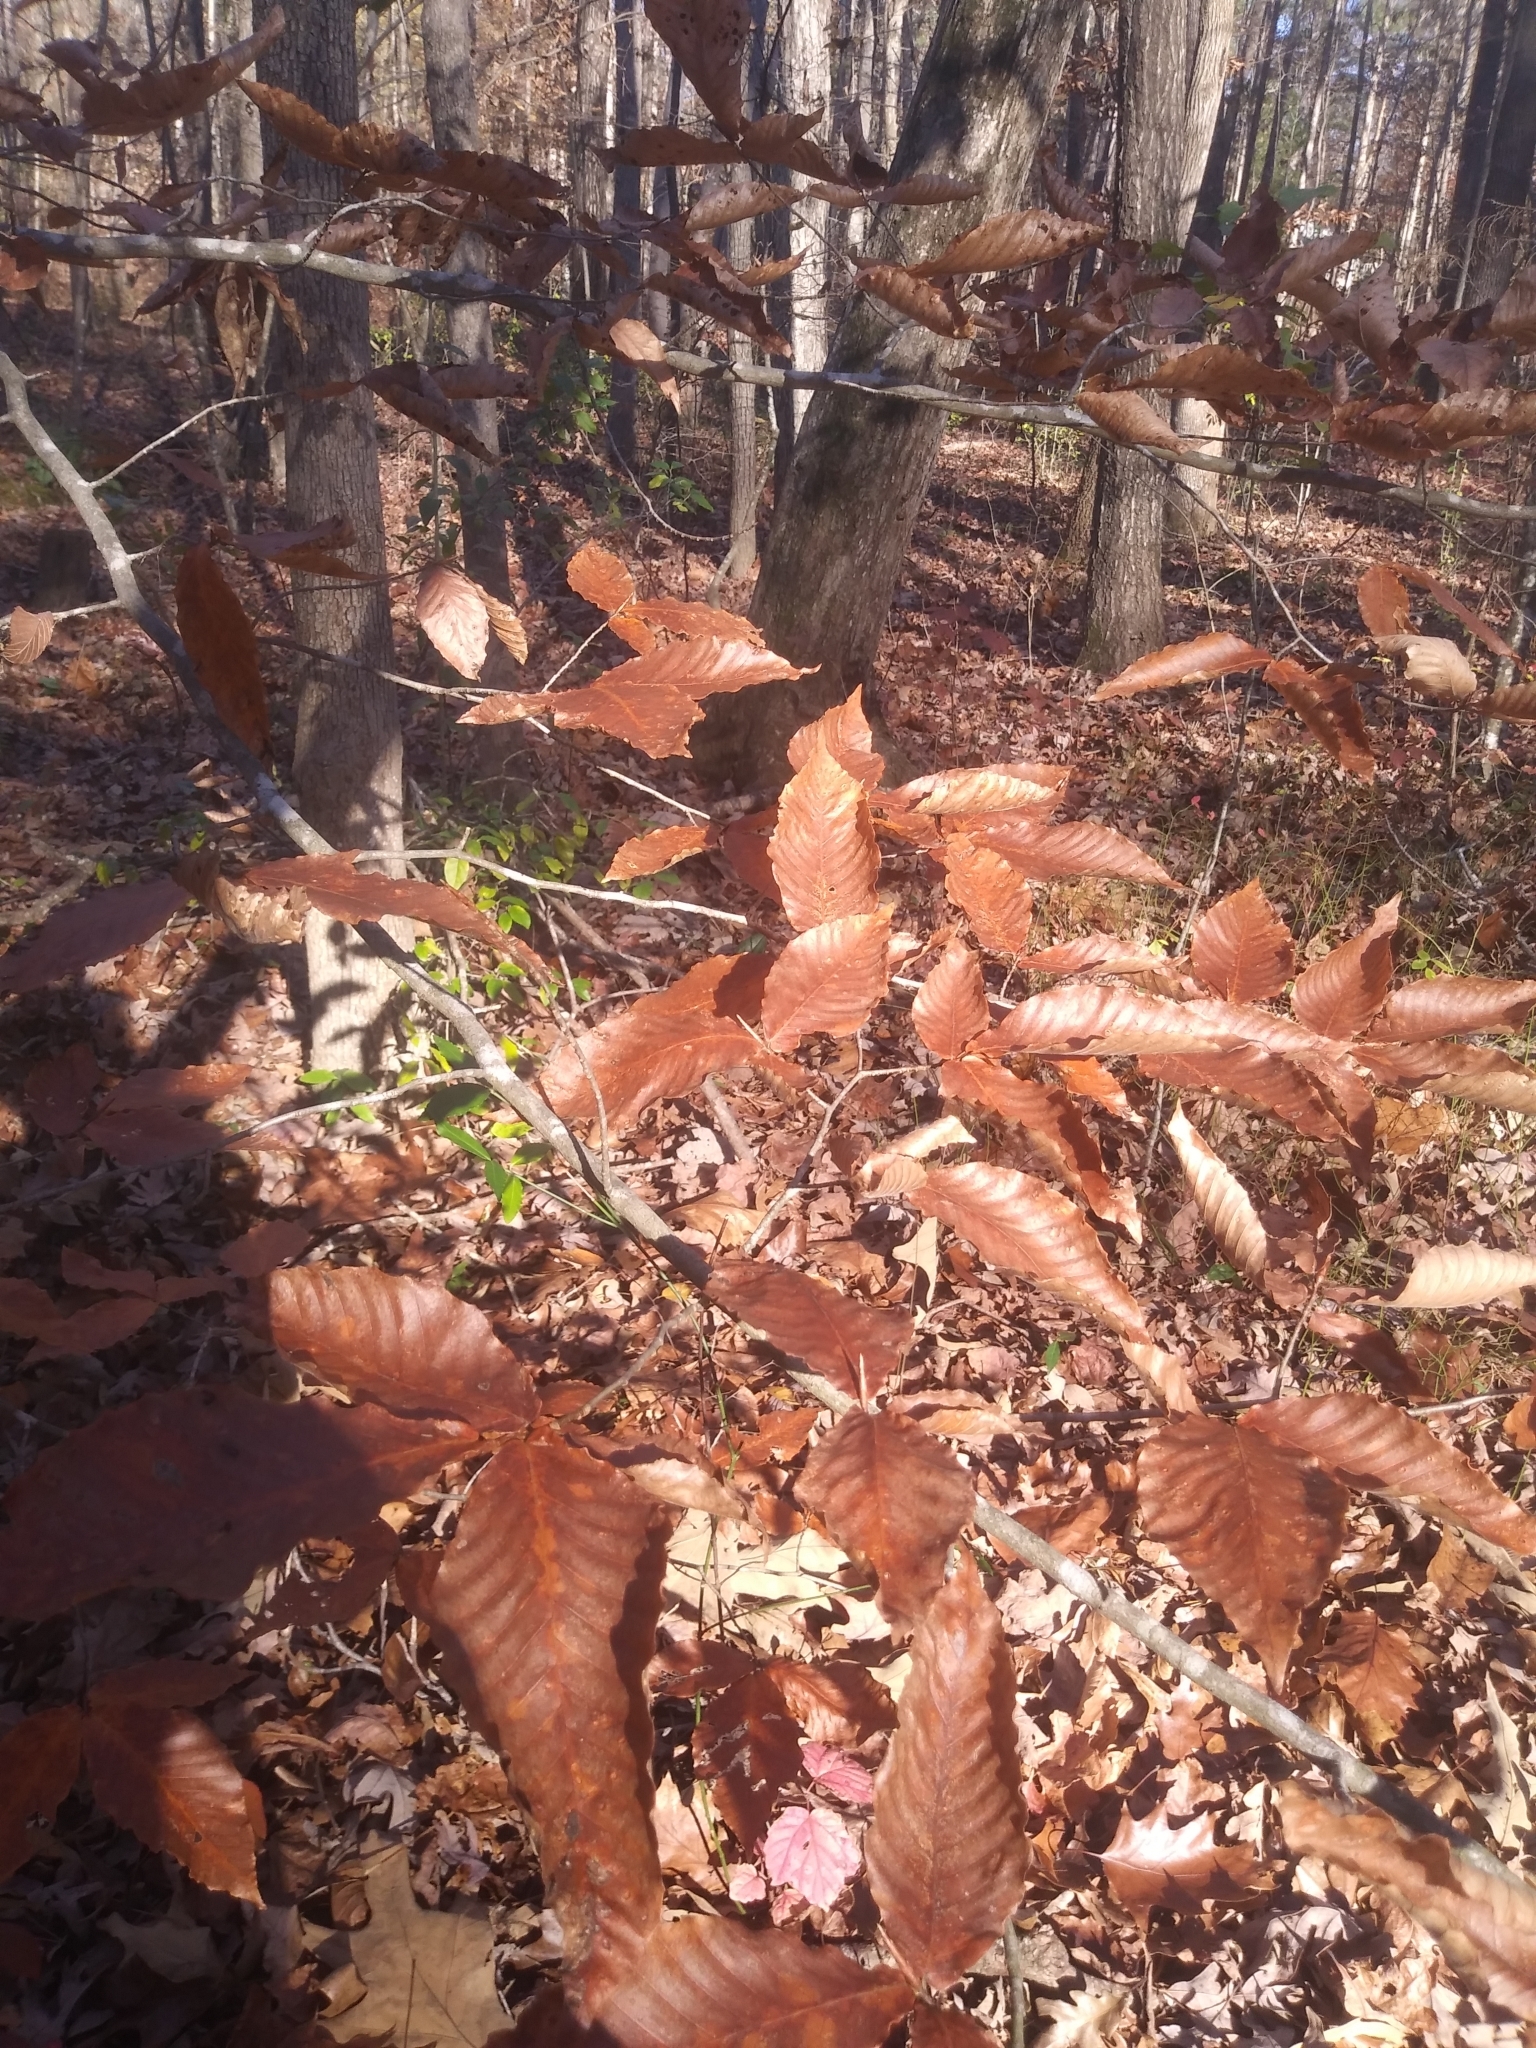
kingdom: Plantae
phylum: Tracheophyta
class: Magnoliopsida
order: Fagales
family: Fagaceae
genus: Fagus
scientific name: Fagus grandifolia
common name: American beech
